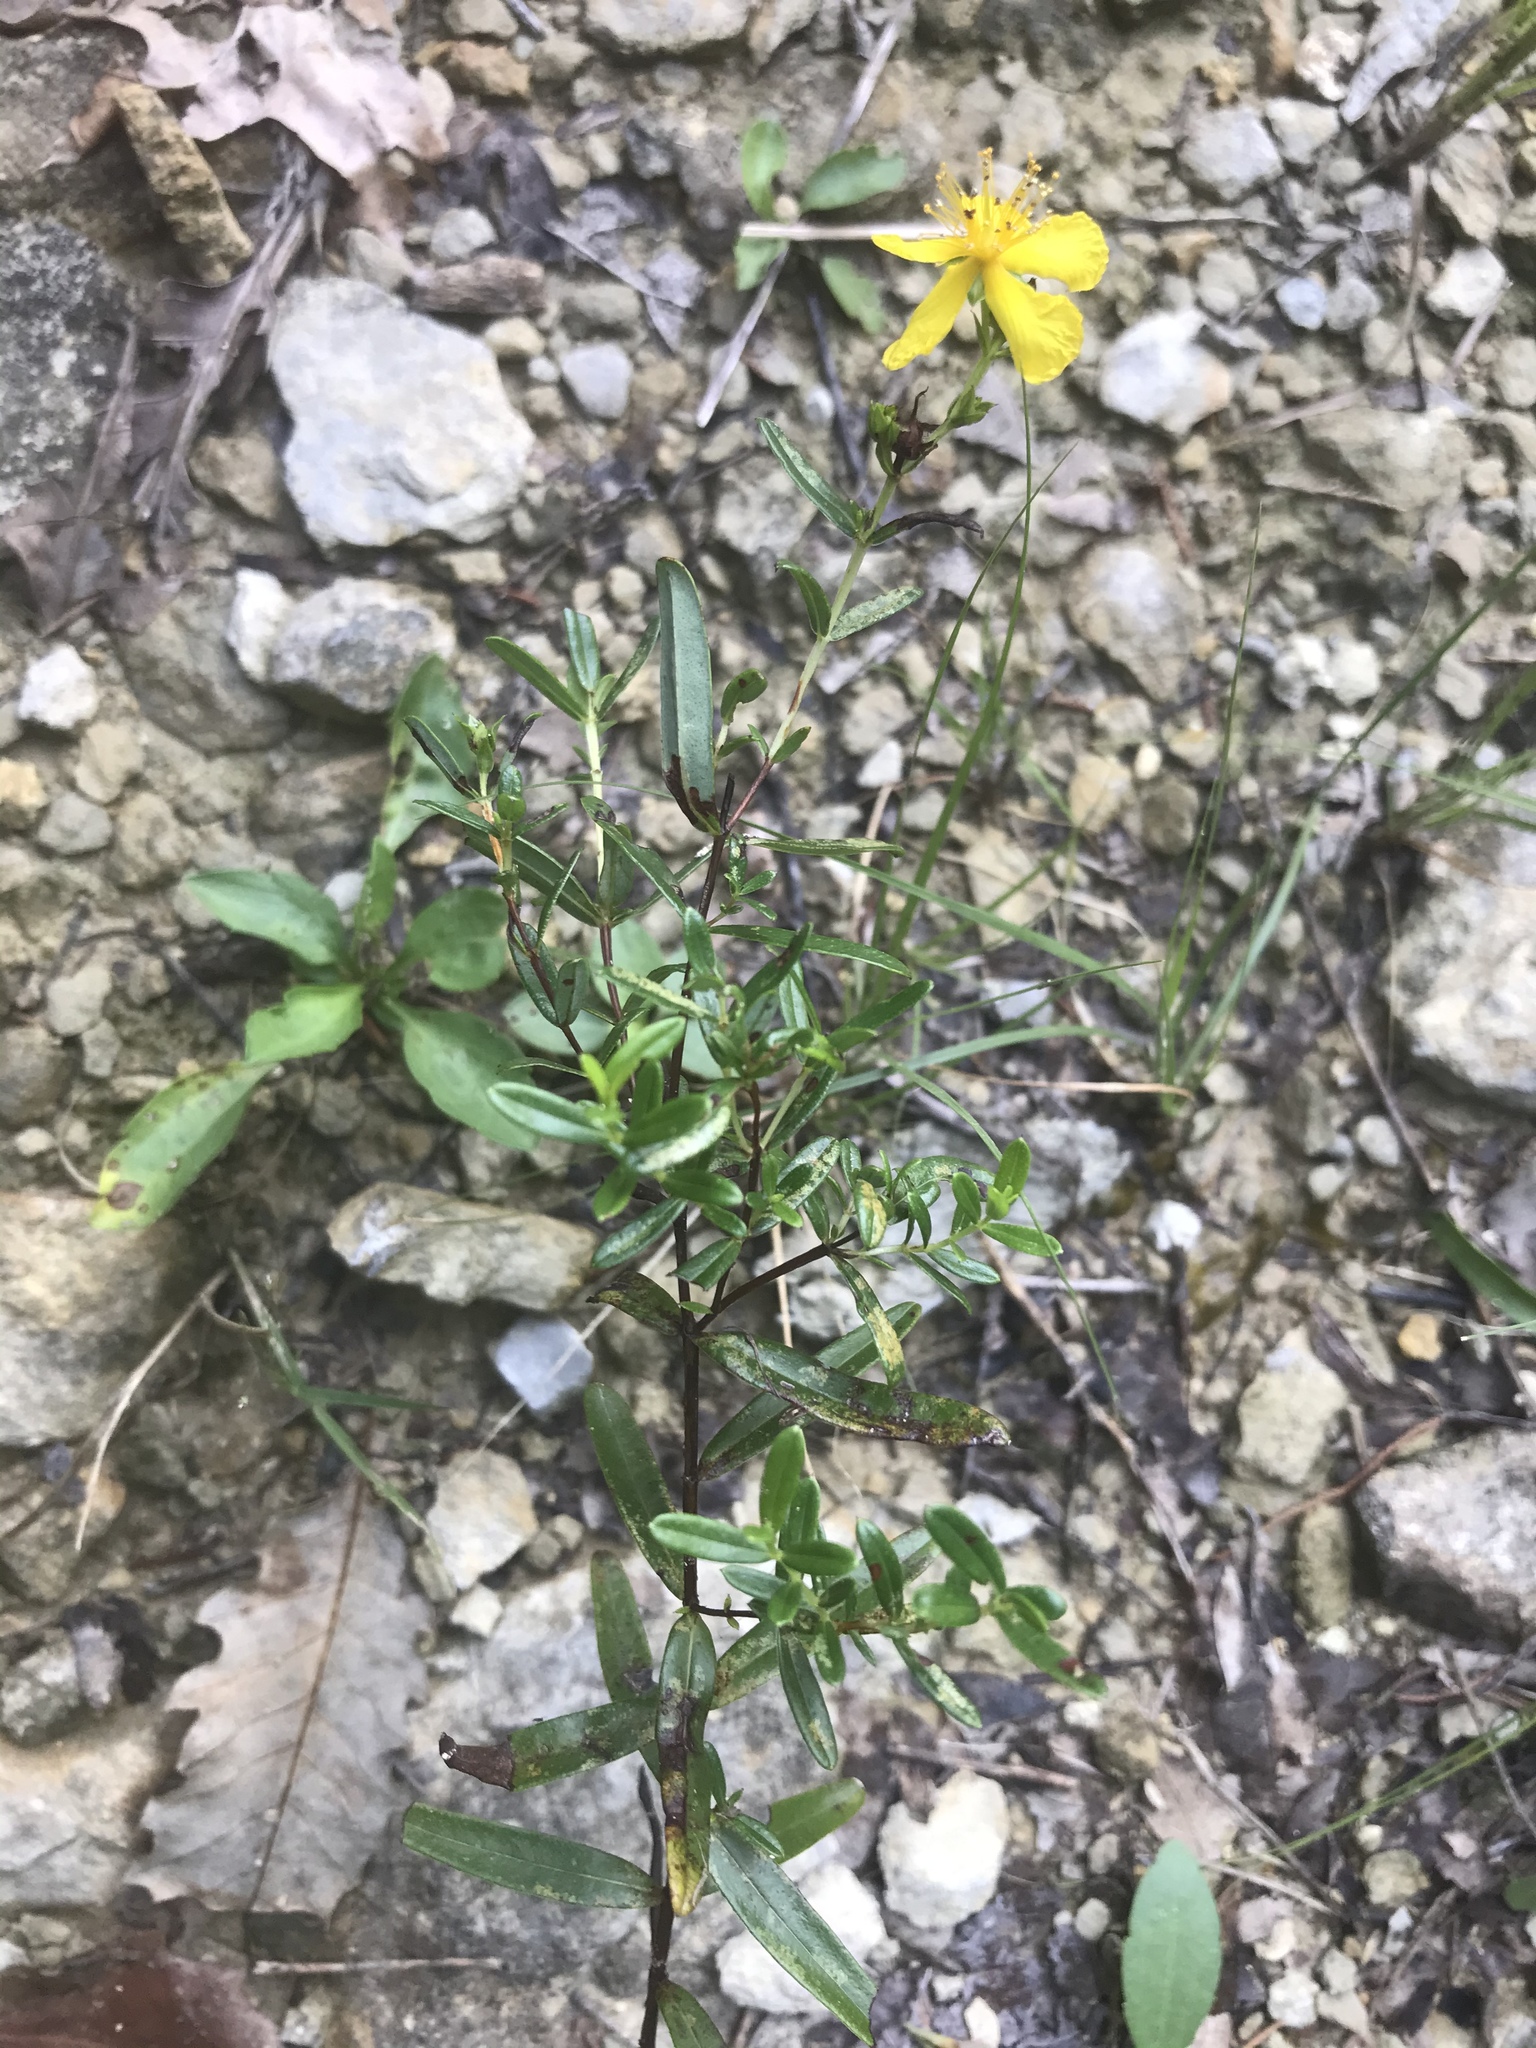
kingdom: Plantae
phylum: Tracheophyta
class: Magnoliopsida
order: Malpighiales
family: Hypericaceae
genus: Hypericum
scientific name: Hypericum sphaerocarpum
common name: Round-fruited st. john's-wort
